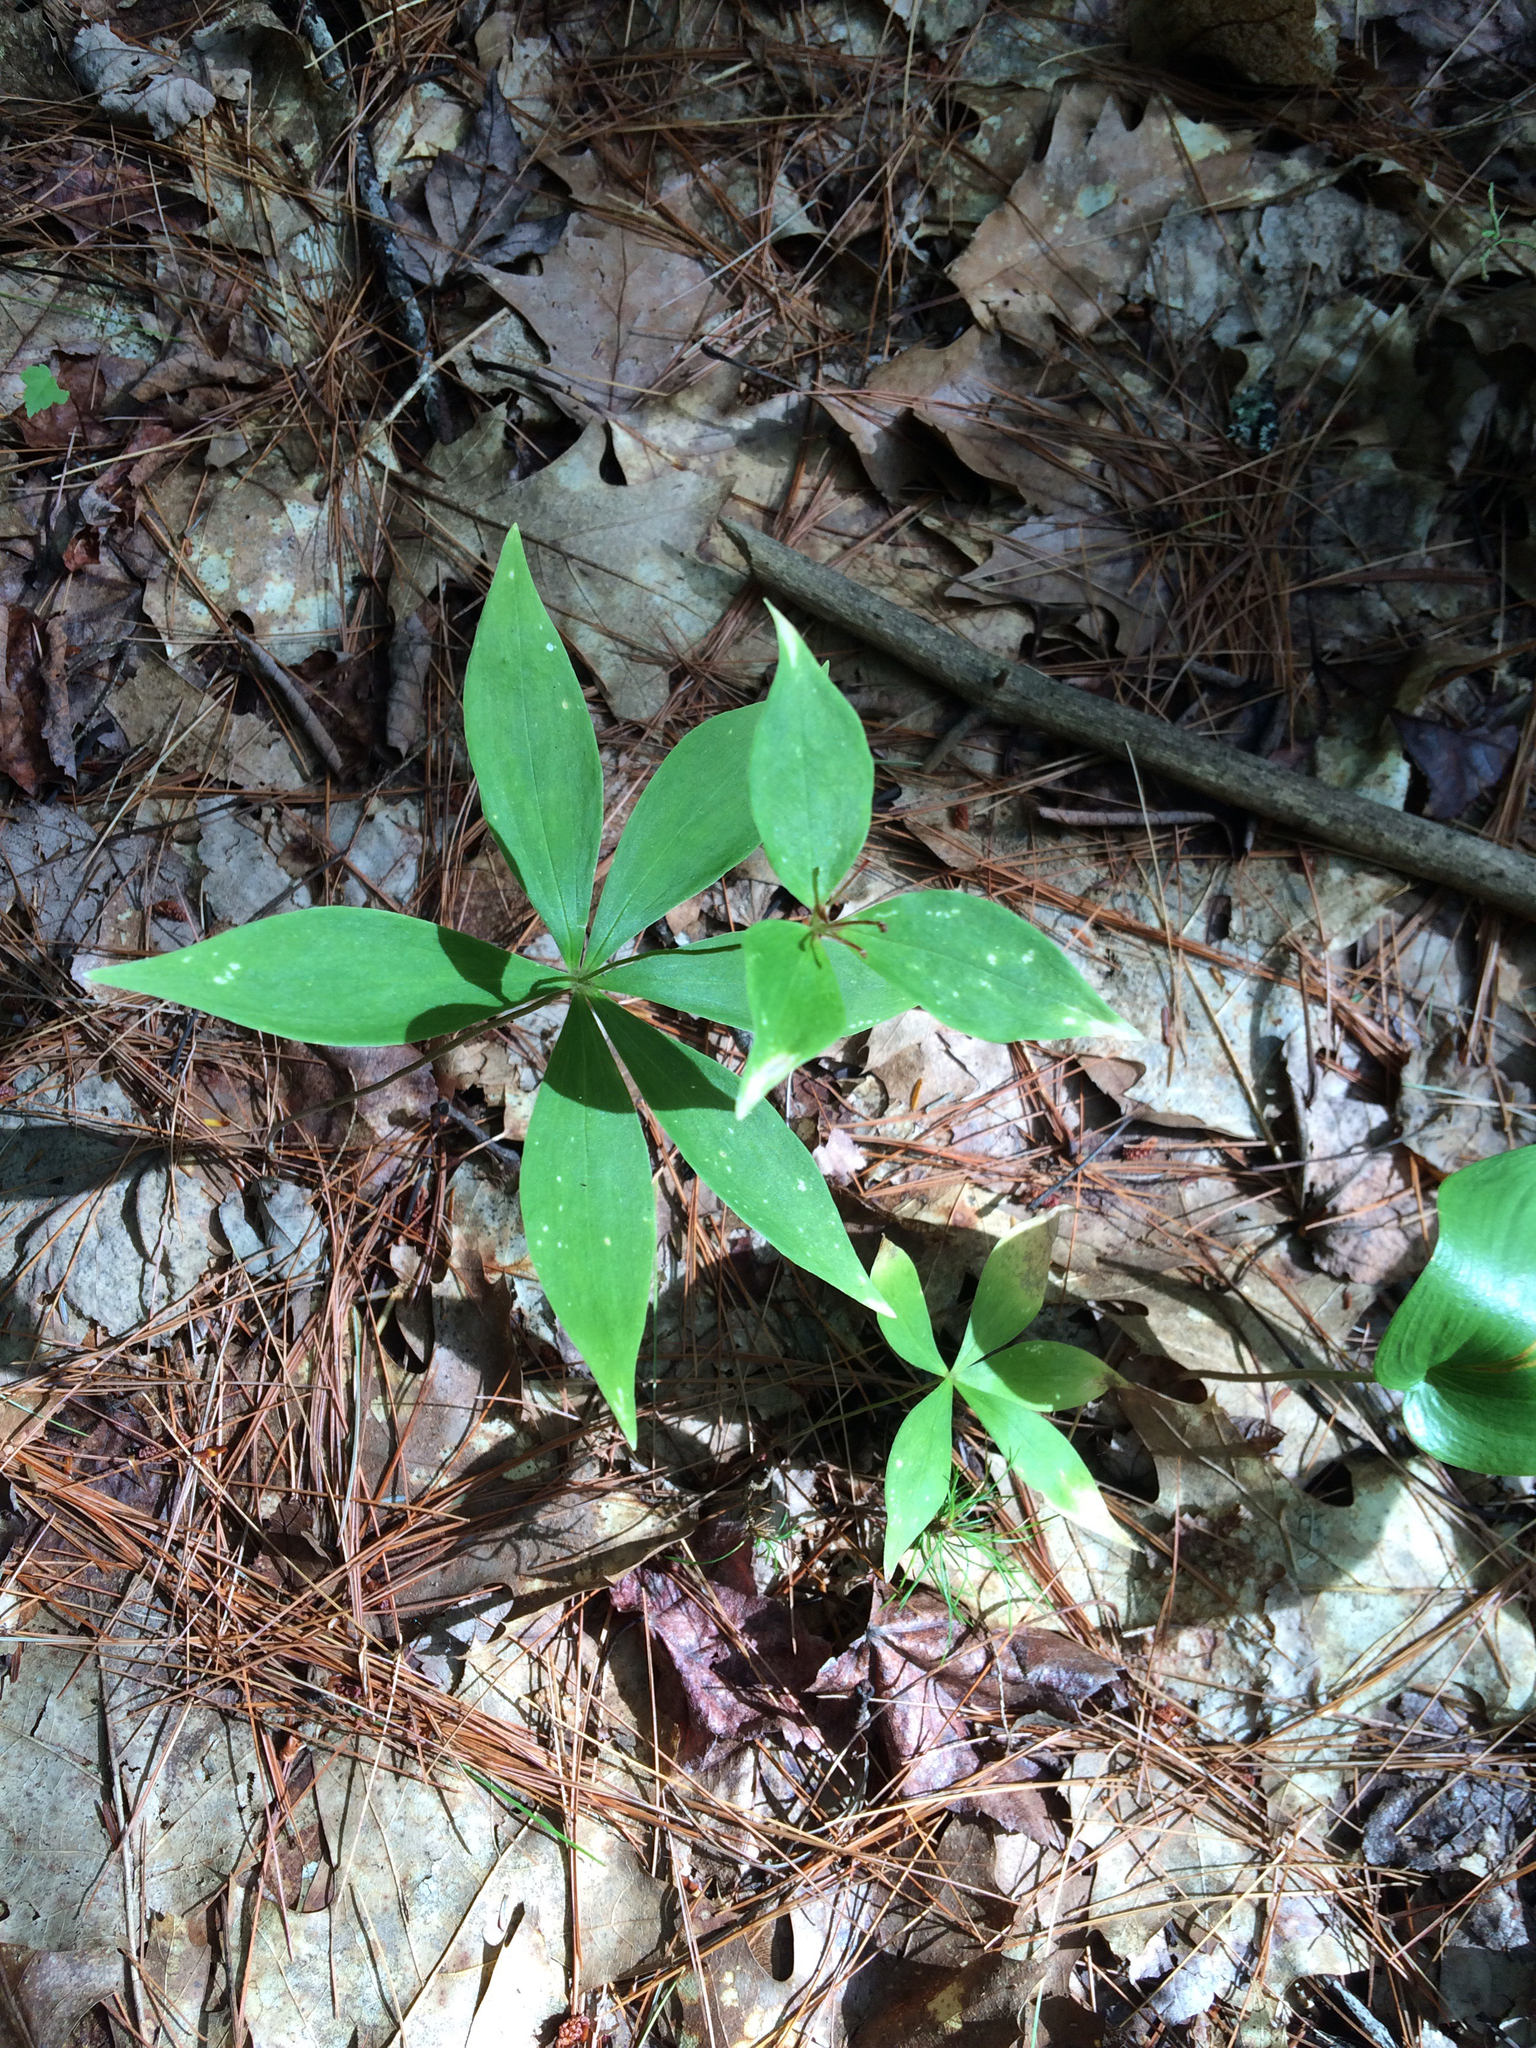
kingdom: Plantae
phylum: Tracheophyta
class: Liliopsida
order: Liliales
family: Liliaceae
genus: Medeola
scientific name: Medeola virginiana
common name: Indian cucumber-root
